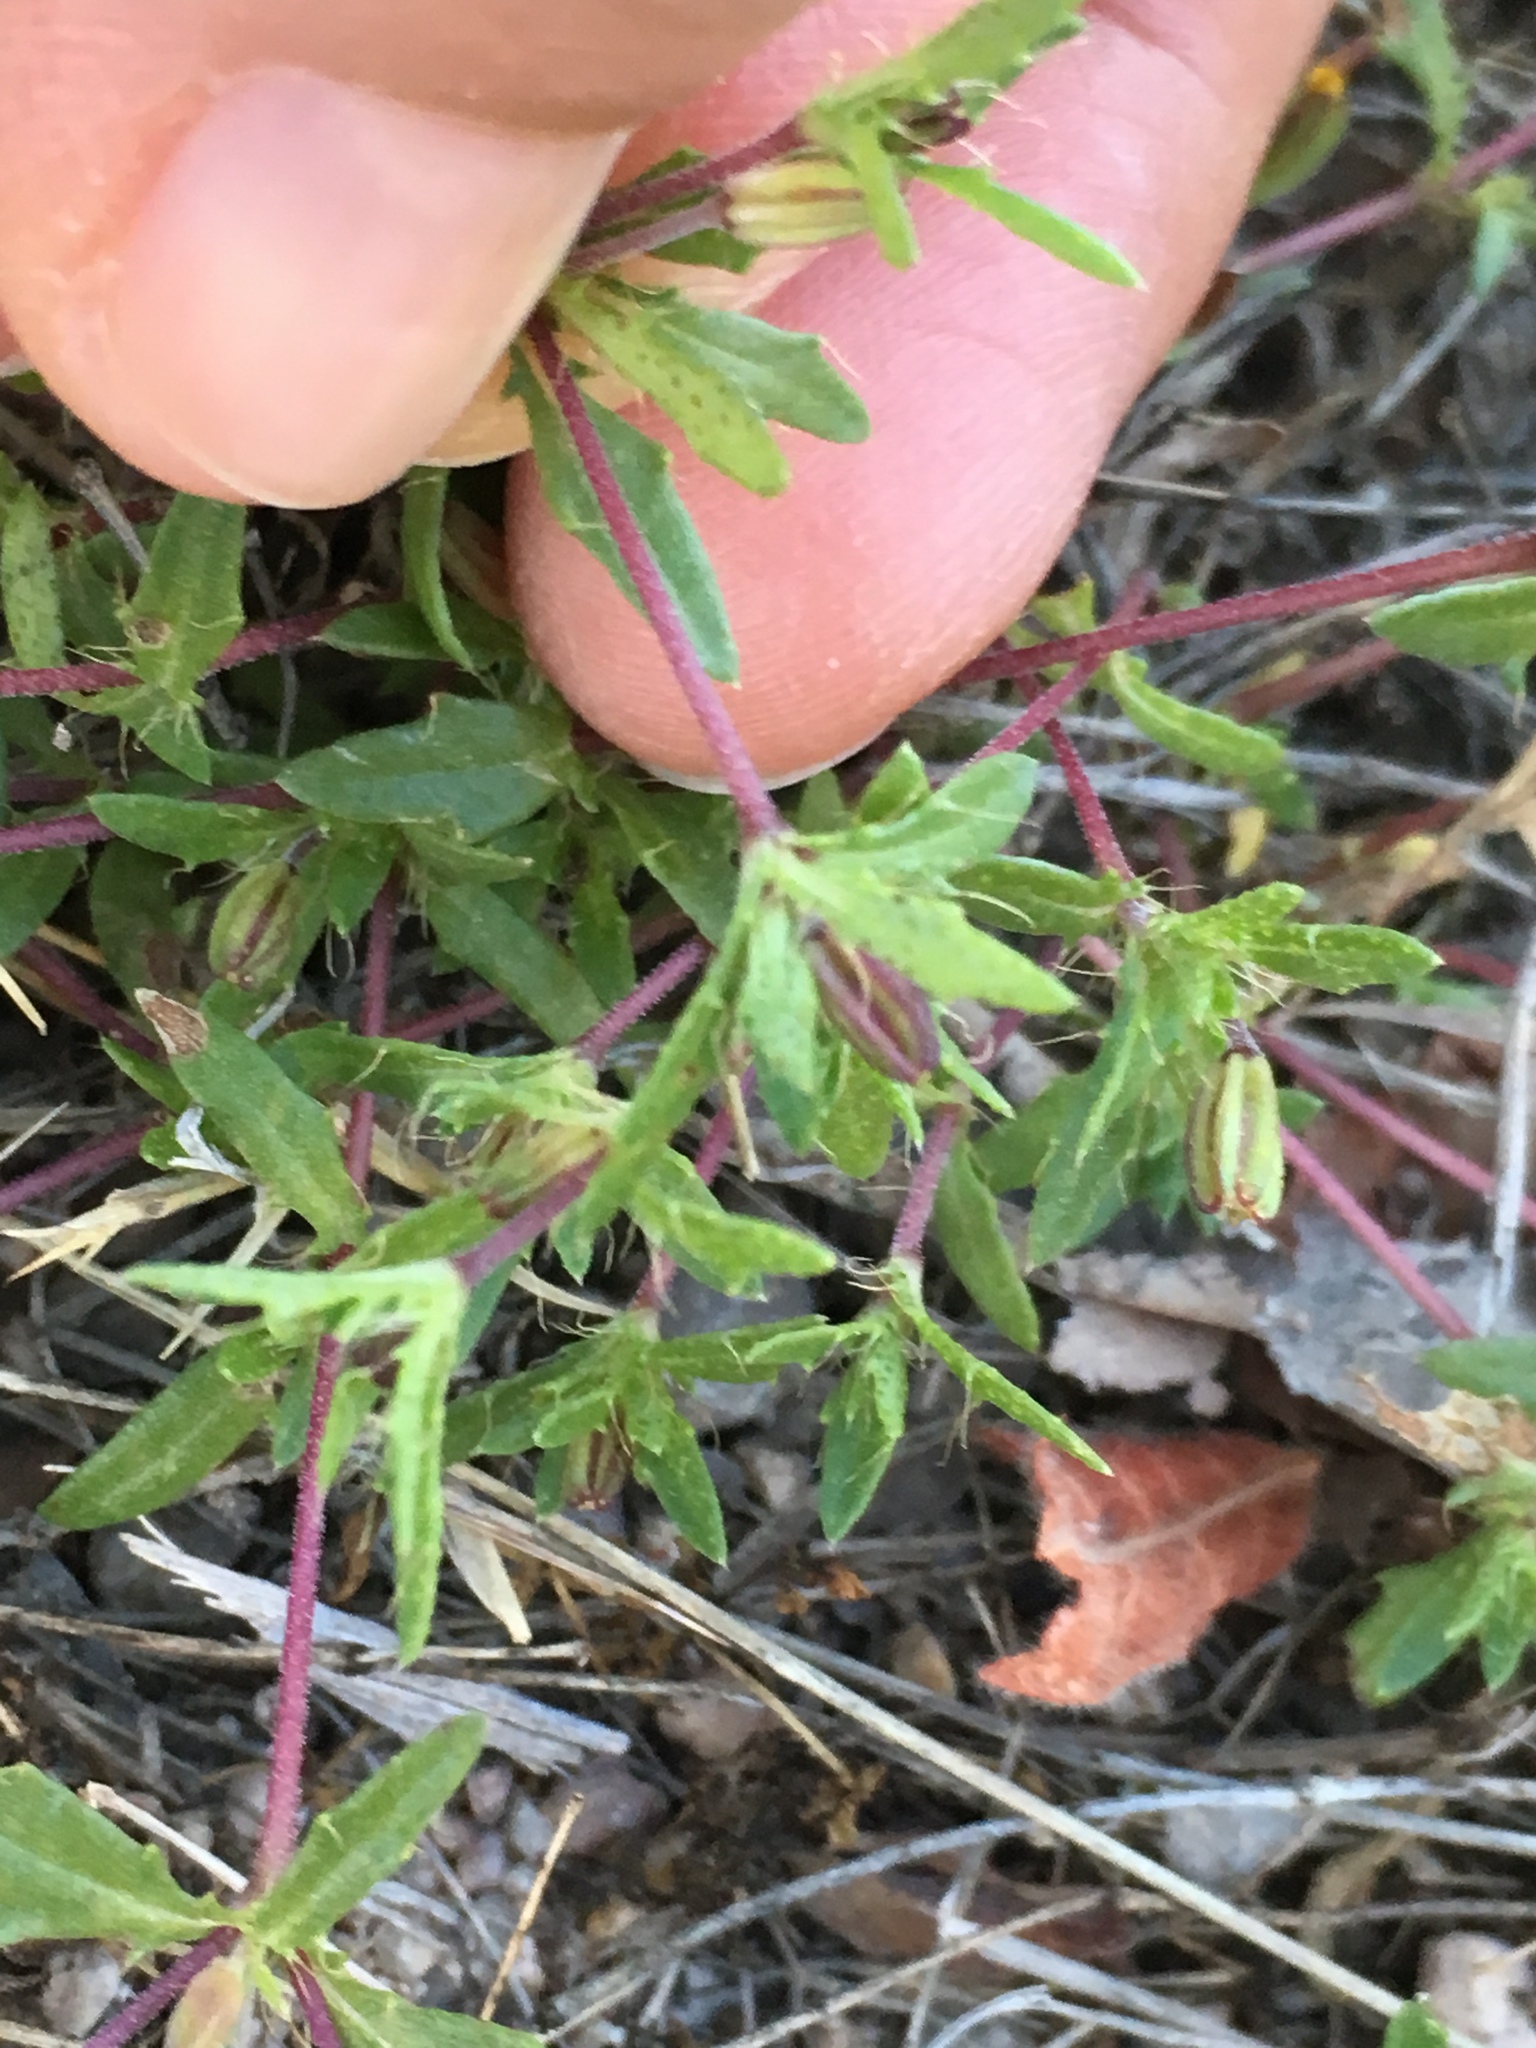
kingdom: Plantae
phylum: Tracheophyta
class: Magnoliopsida
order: Asterales
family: Asteraceae
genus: Pectis
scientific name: Pectis multiseta
